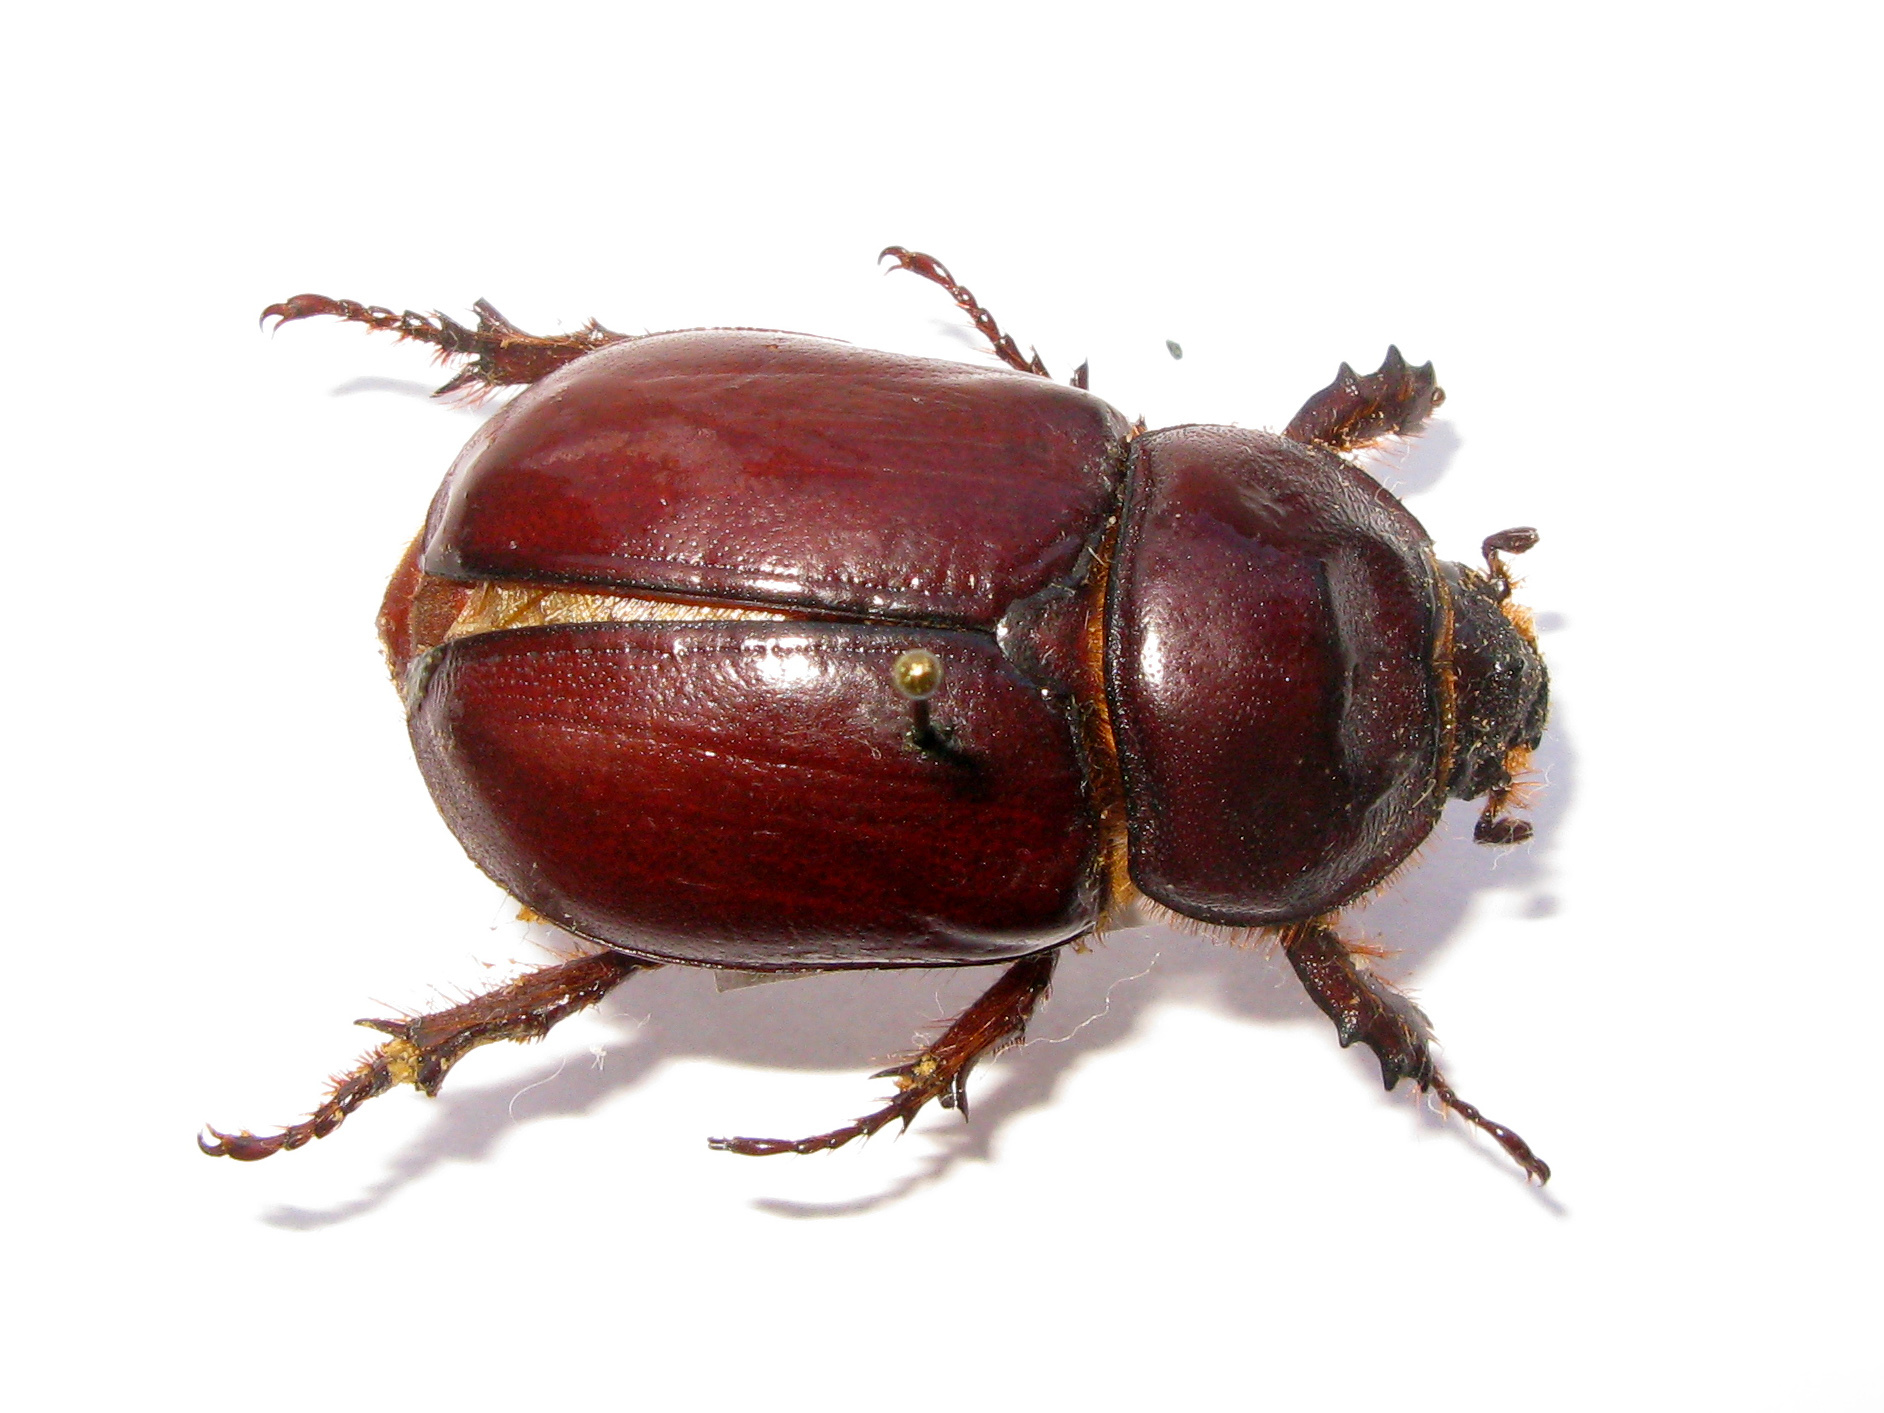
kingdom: Animalia
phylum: Arthropoda
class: Insecta
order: Coleoptera
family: Scarabaeidae
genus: Oryctes
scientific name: Oryctes nasicornis
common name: European rhinoceros beetle
